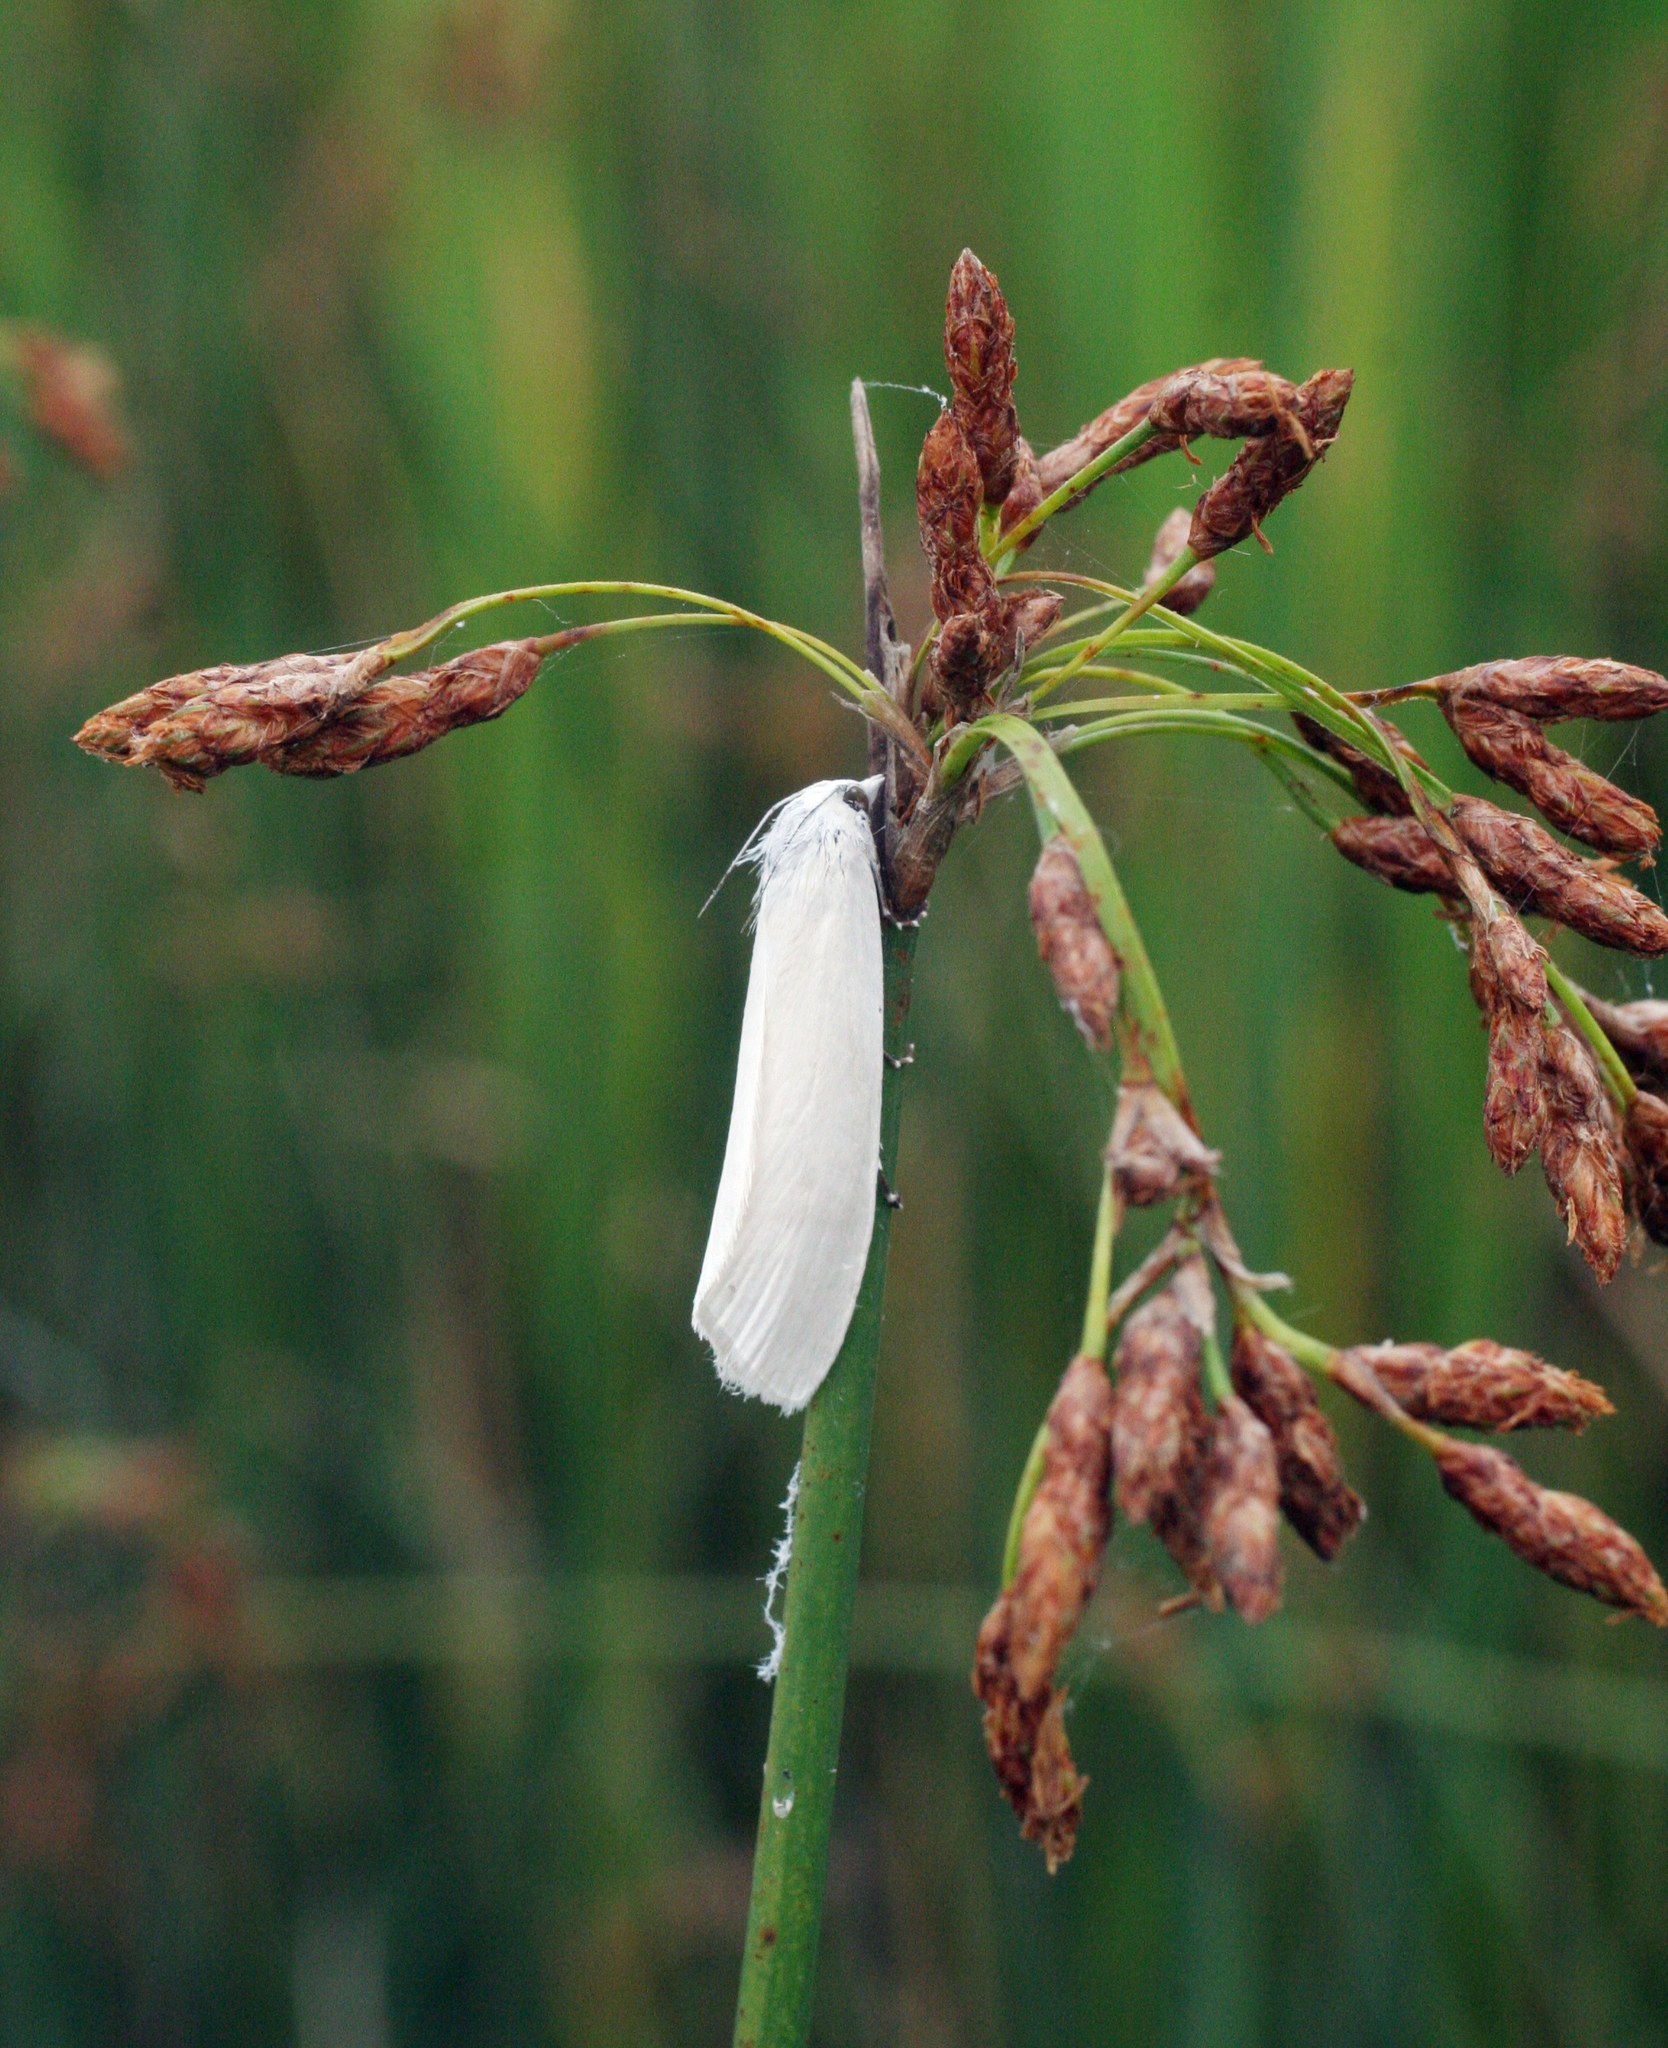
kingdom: Plantae
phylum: Tracheophyta
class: Liliopsida
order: Poales
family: Cyperaceae
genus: Schoenoplectus
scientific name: Schoenoplectus tabernaemontani
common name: Grey club-rush
